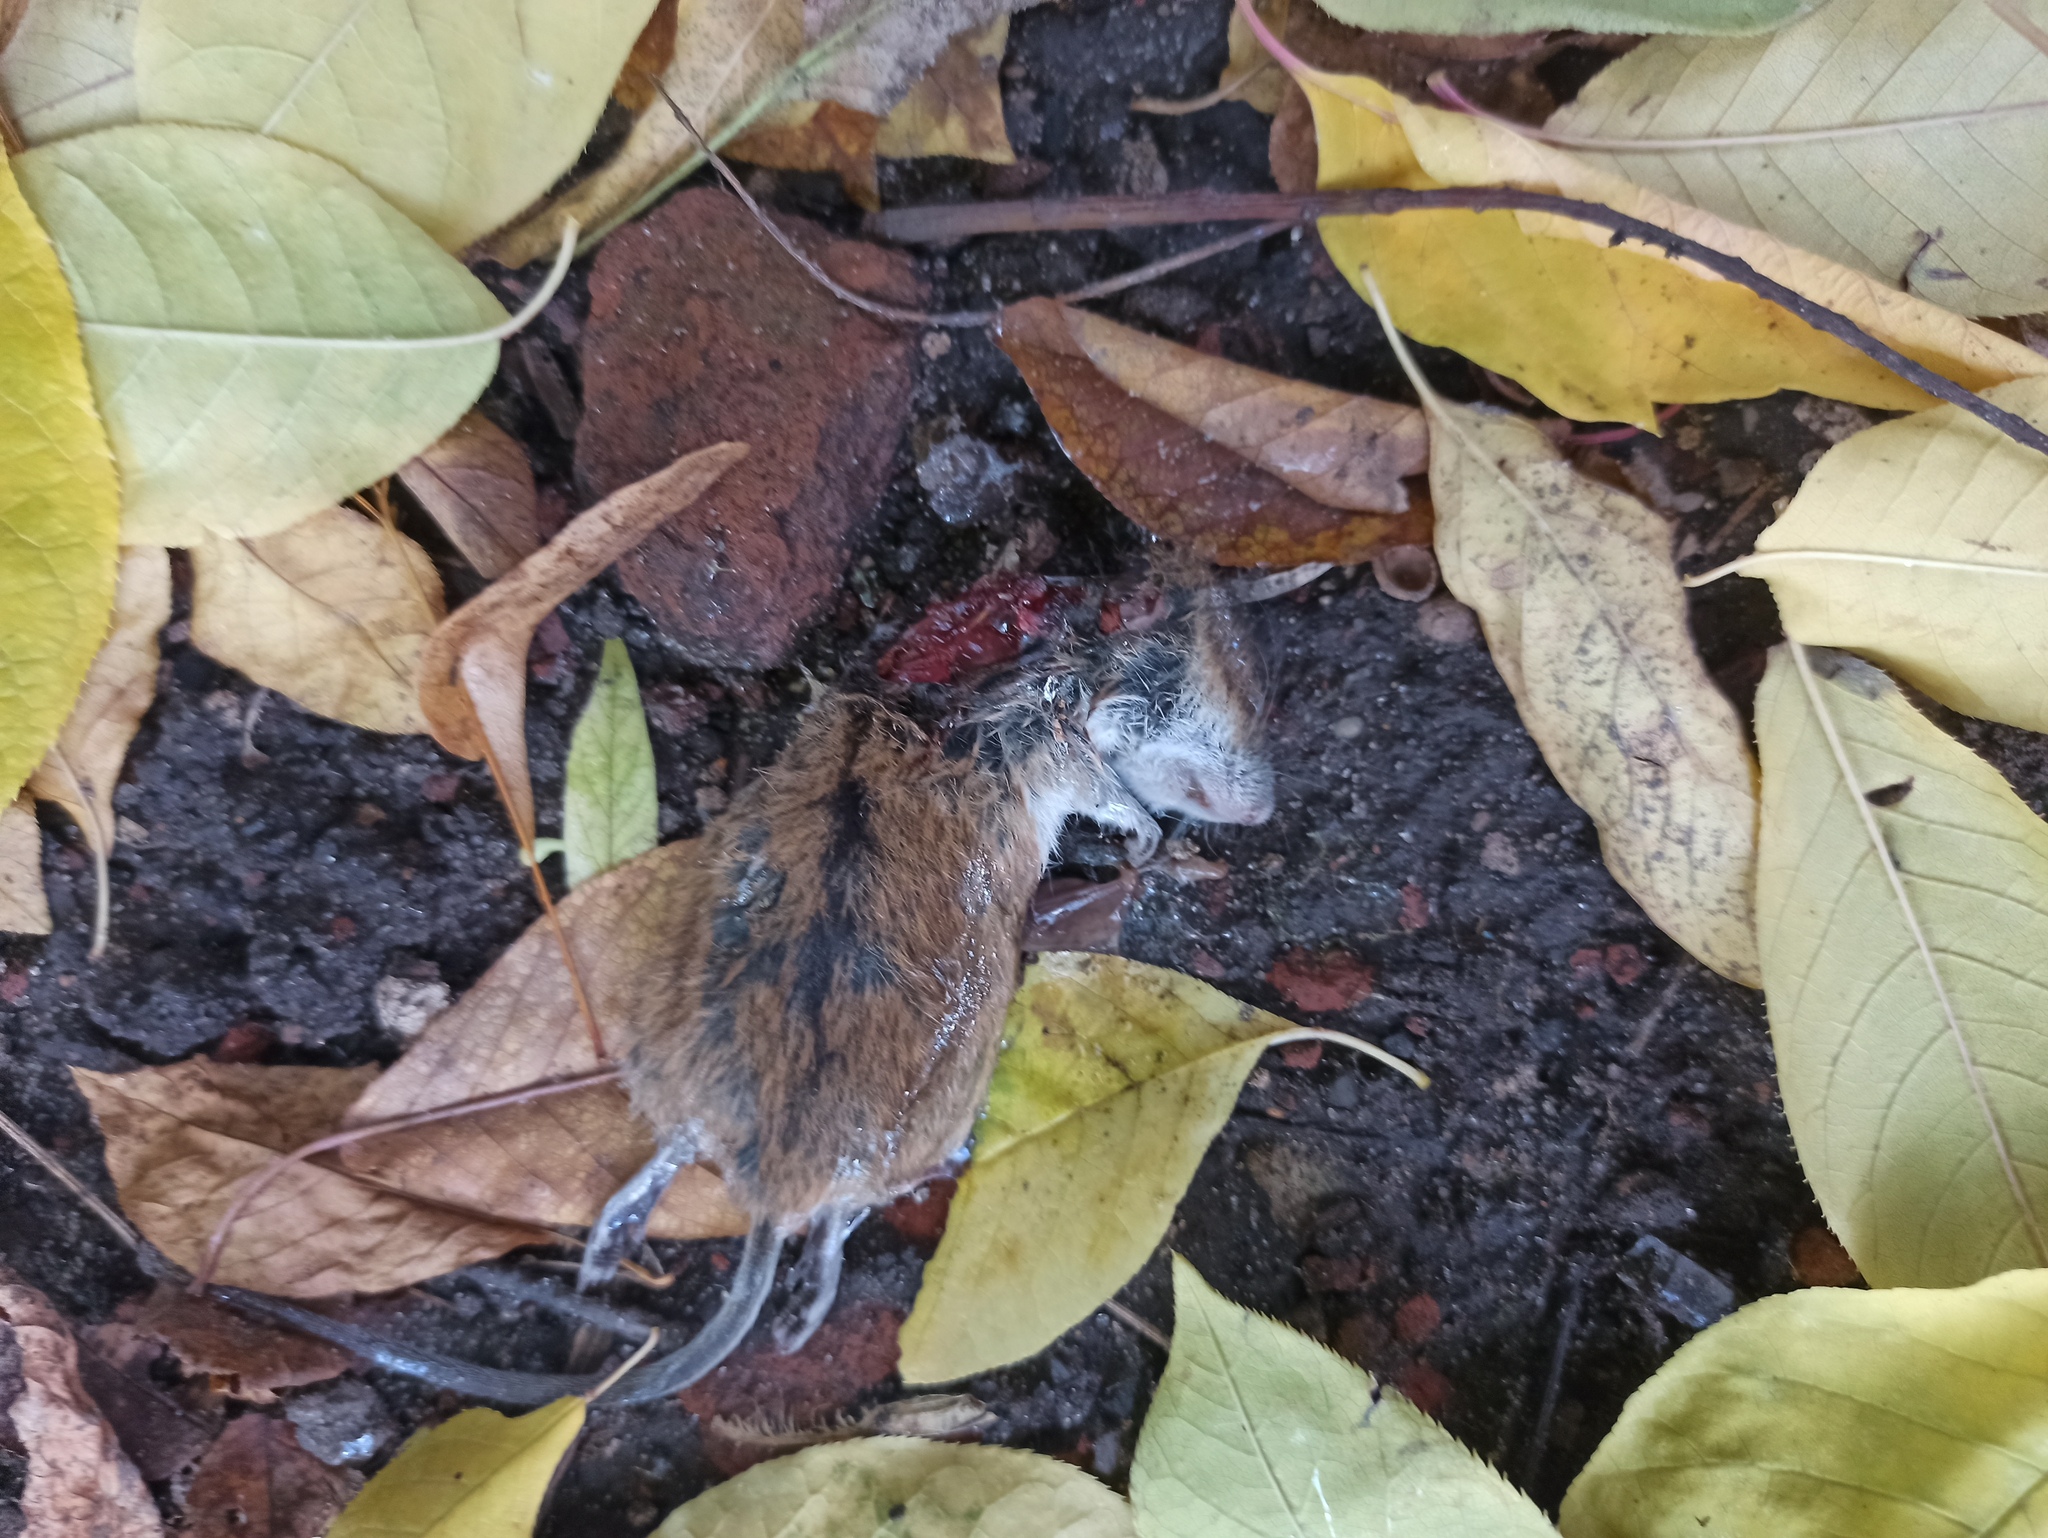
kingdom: Animalia
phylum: Chordata
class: Mammalia
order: Rodentia
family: Muridae
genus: Apodemus
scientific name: Apodemus agrarius
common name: Striped field mouse
